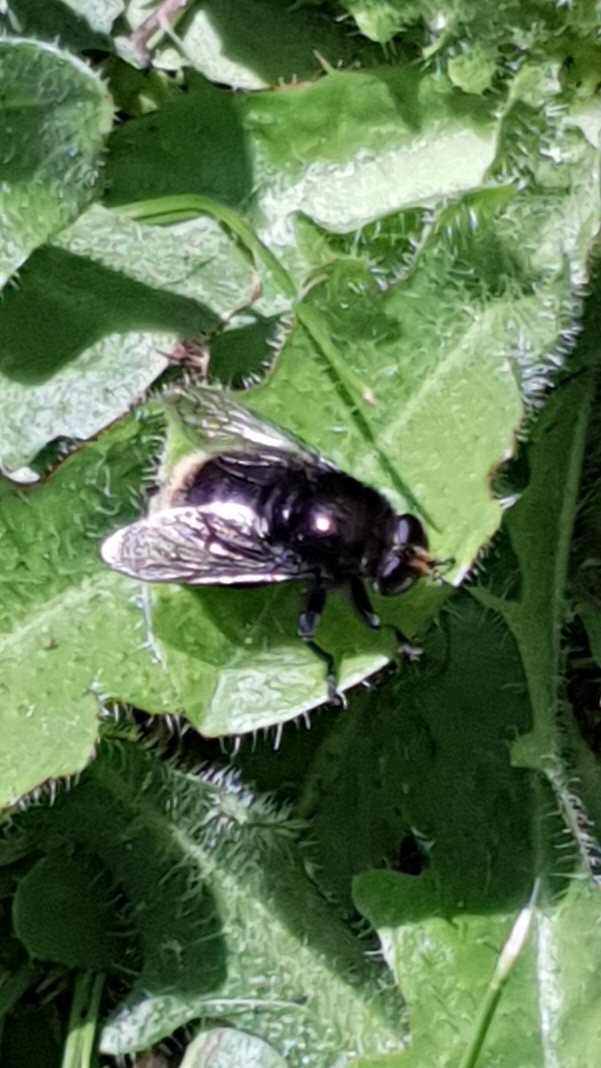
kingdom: Animalia
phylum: Arthropoda
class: Insecta
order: Diptera
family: Syrphidae
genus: Merodon
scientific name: Merodon equestris
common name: Greater bulb-fly
